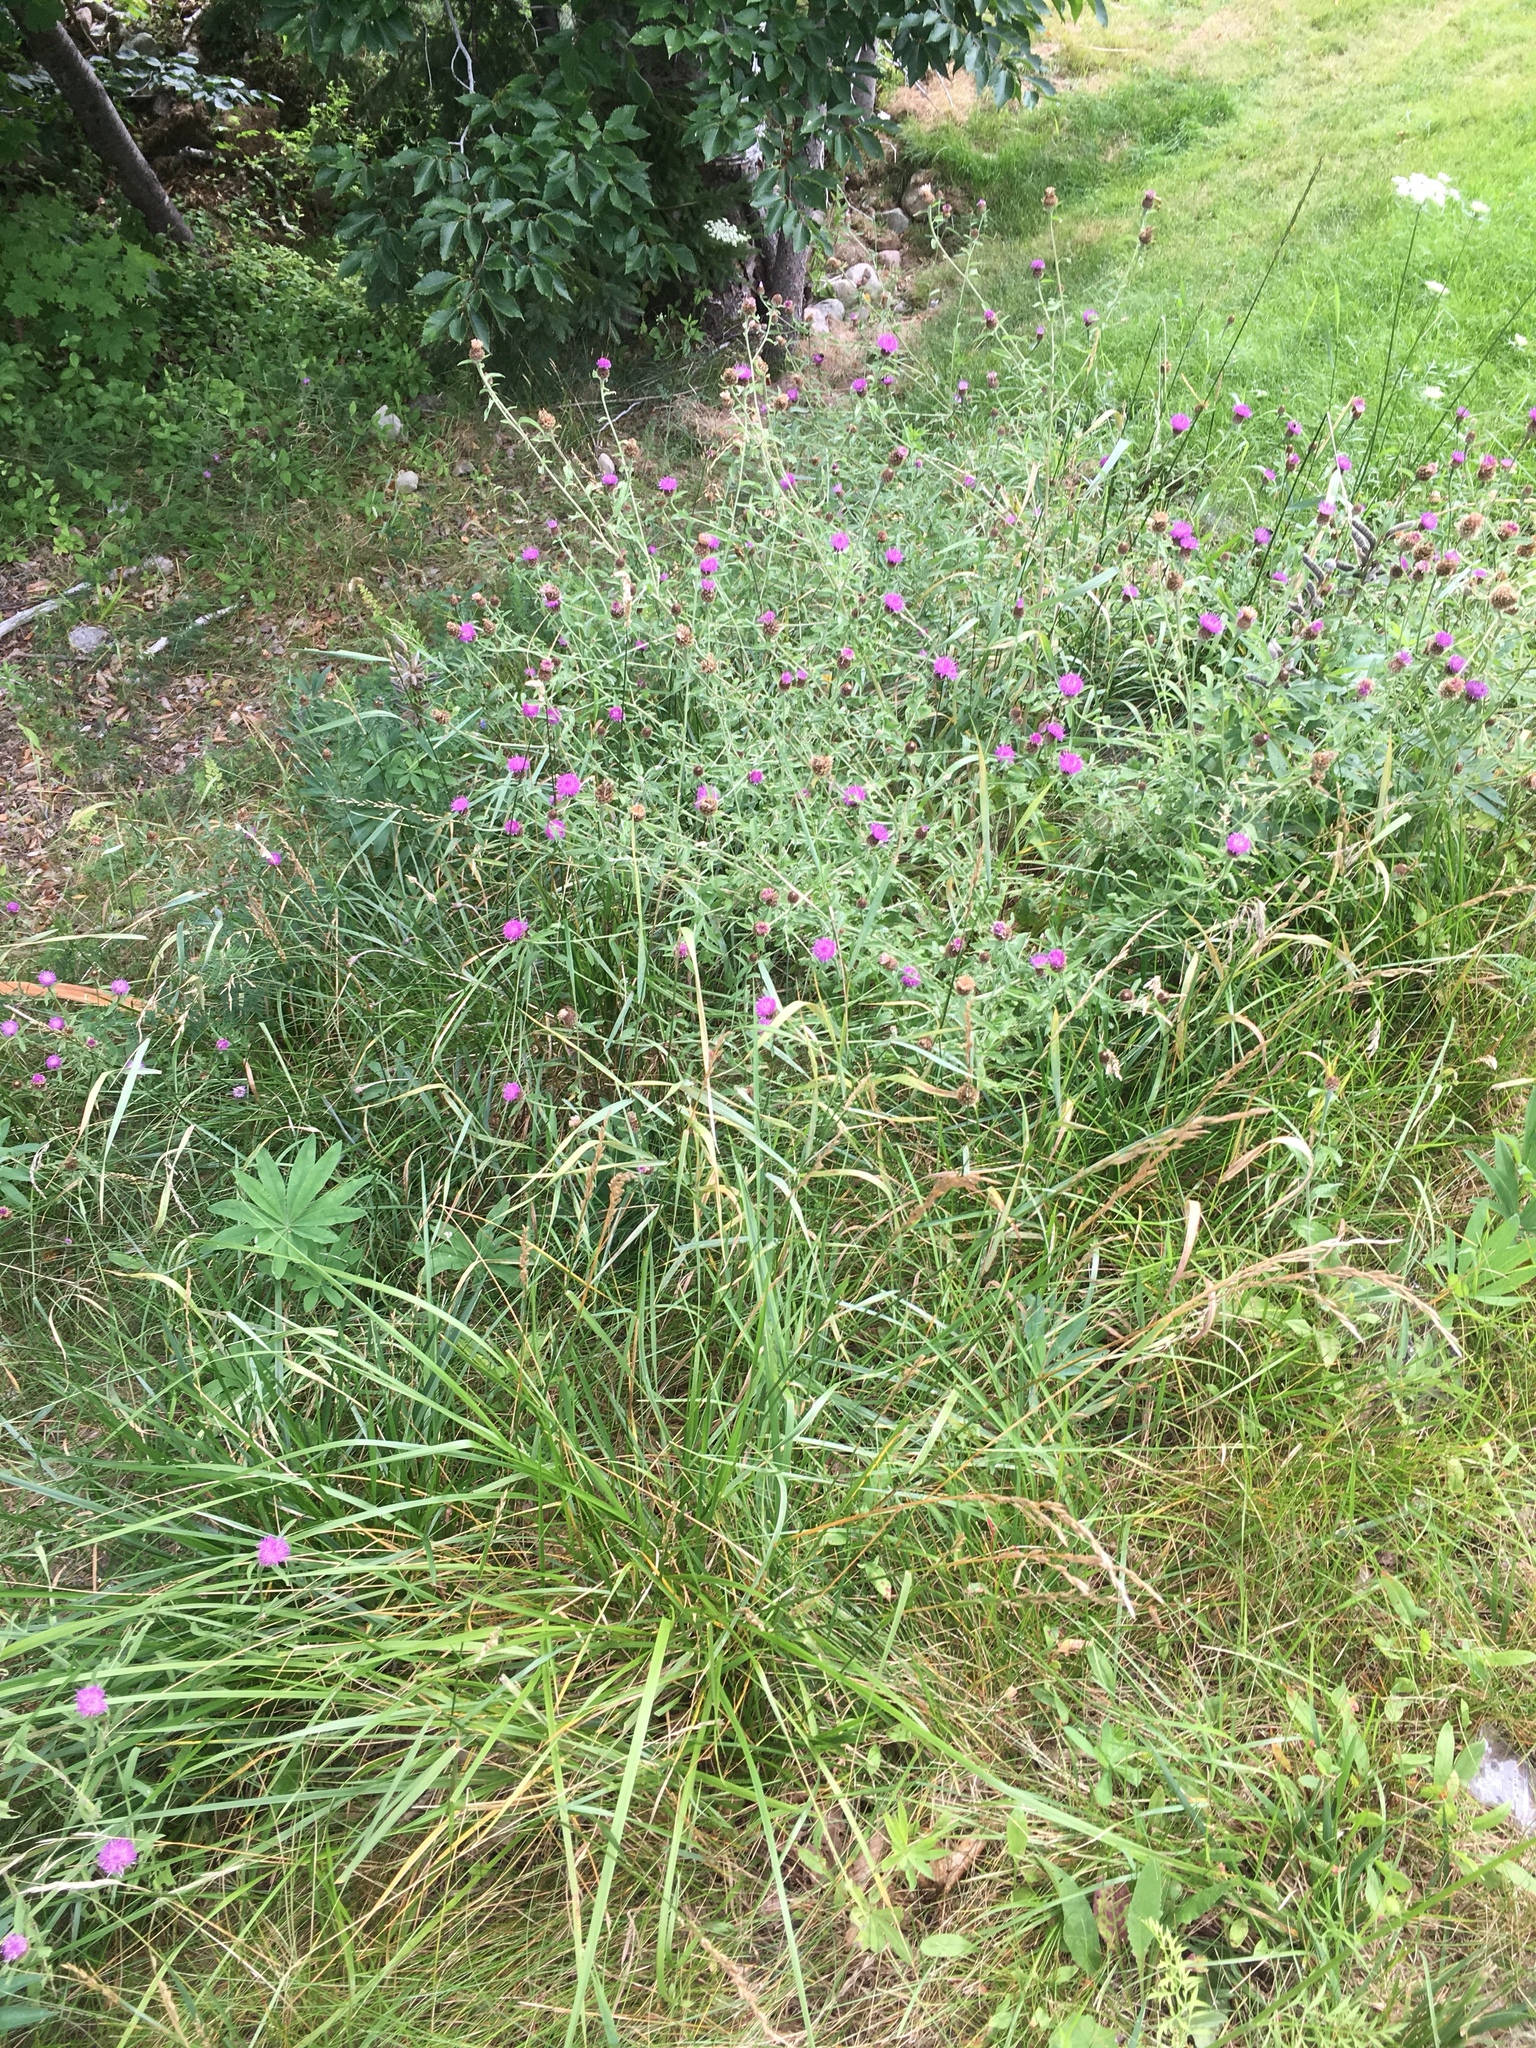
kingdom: Plantae
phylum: Tracheophyta
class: Magnoliopsida
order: Asterales
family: Asteraceae
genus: Centaurea
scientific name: Centaurea nigra
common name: Lesser knapweed
